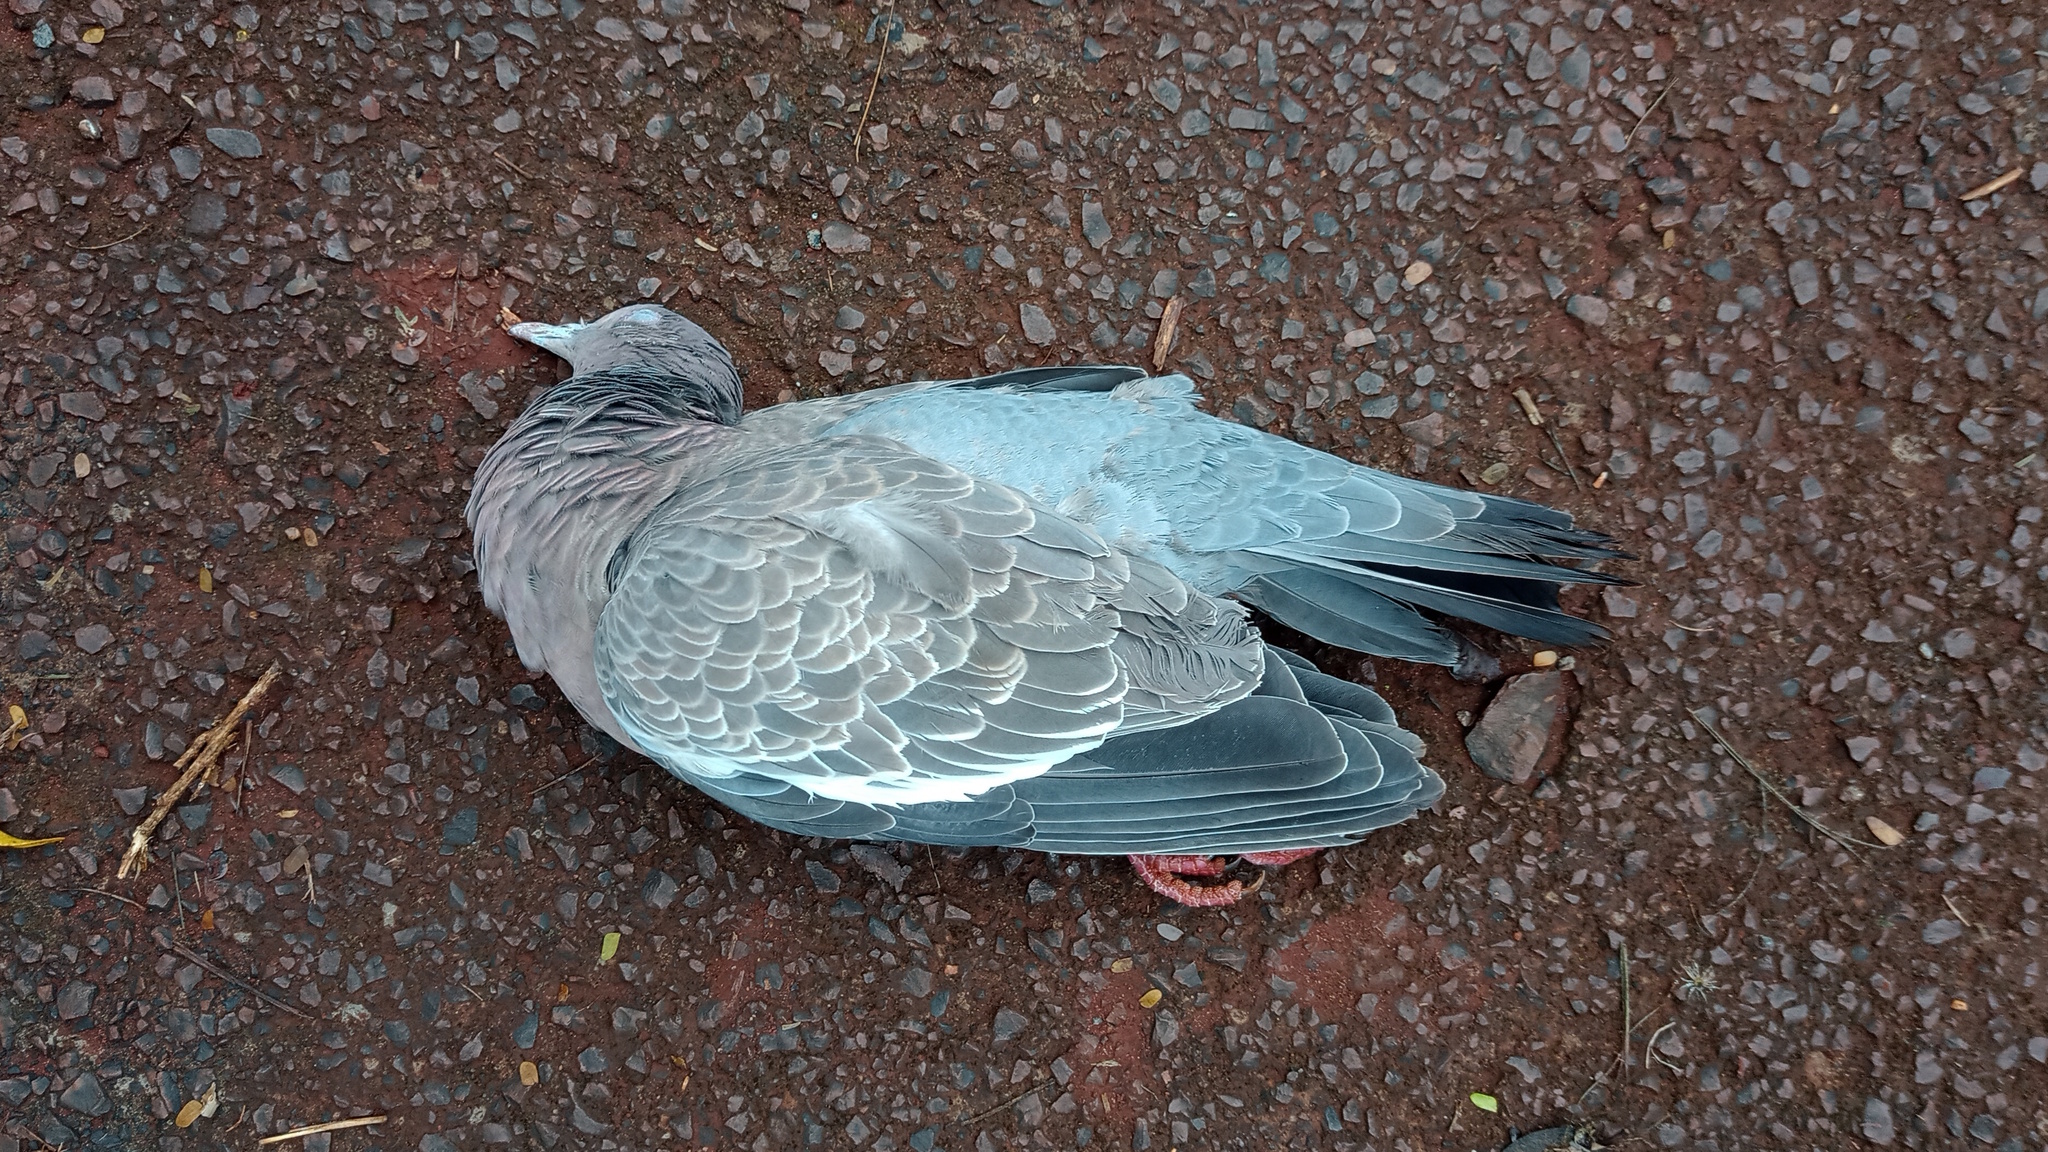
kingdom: Animalia
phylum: Chordata
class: Aves
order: Columbiformes
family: Columbidae
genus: Patagioenas
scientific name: Patagioenas picazuro
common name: Picazuro pigeon
